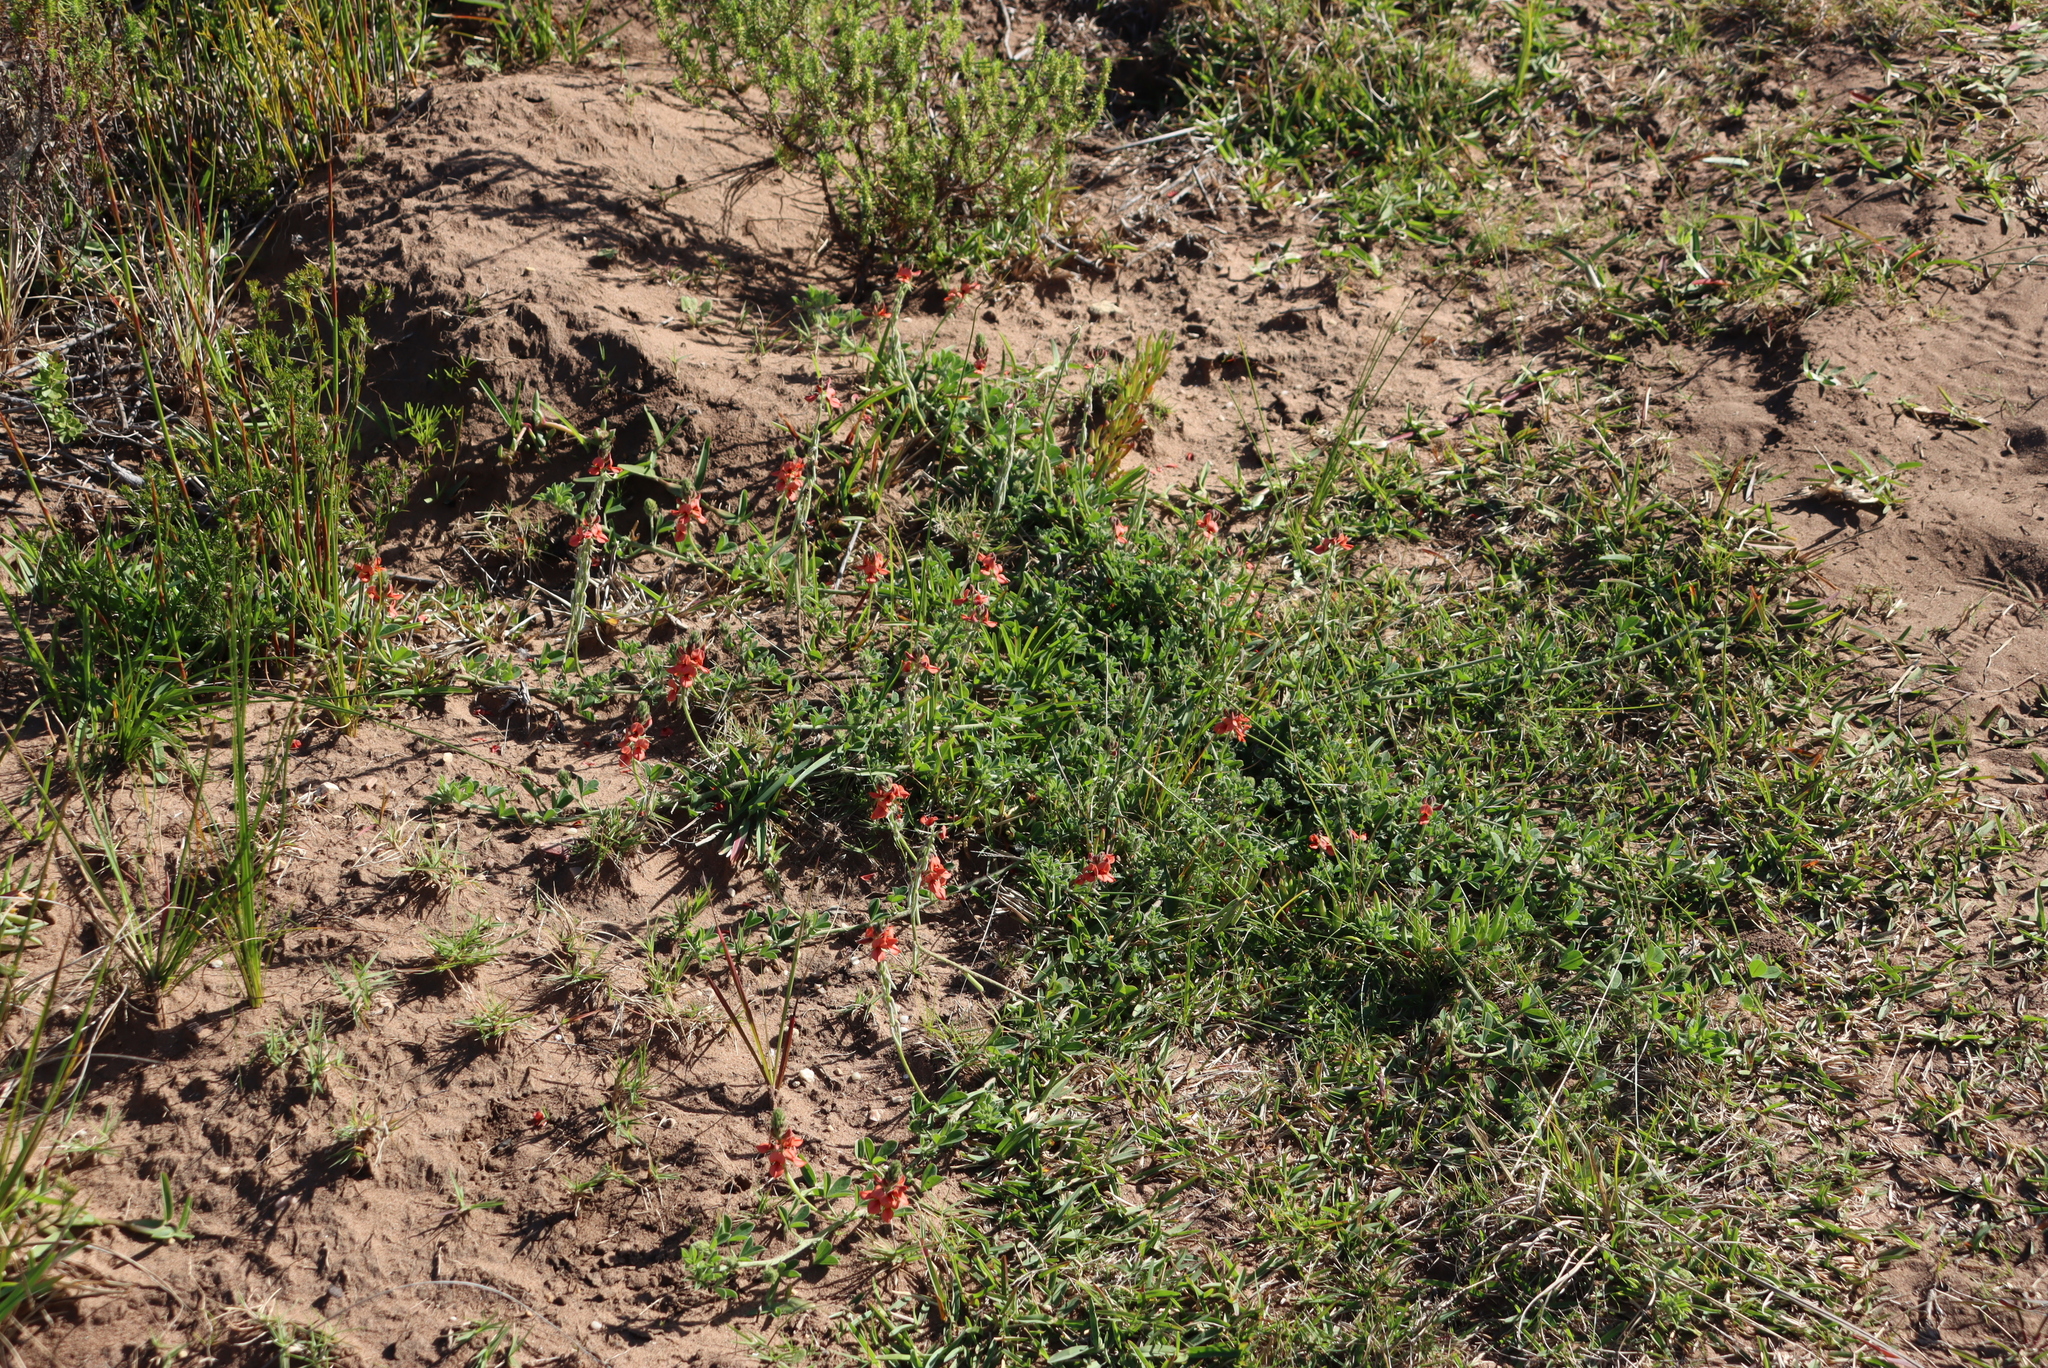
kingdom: Plantae
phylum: Tracheophyta
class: Magnoliopsida
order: Fabales
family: Fabaceae
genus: Indigofera
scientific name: Indigofera heterophylla
